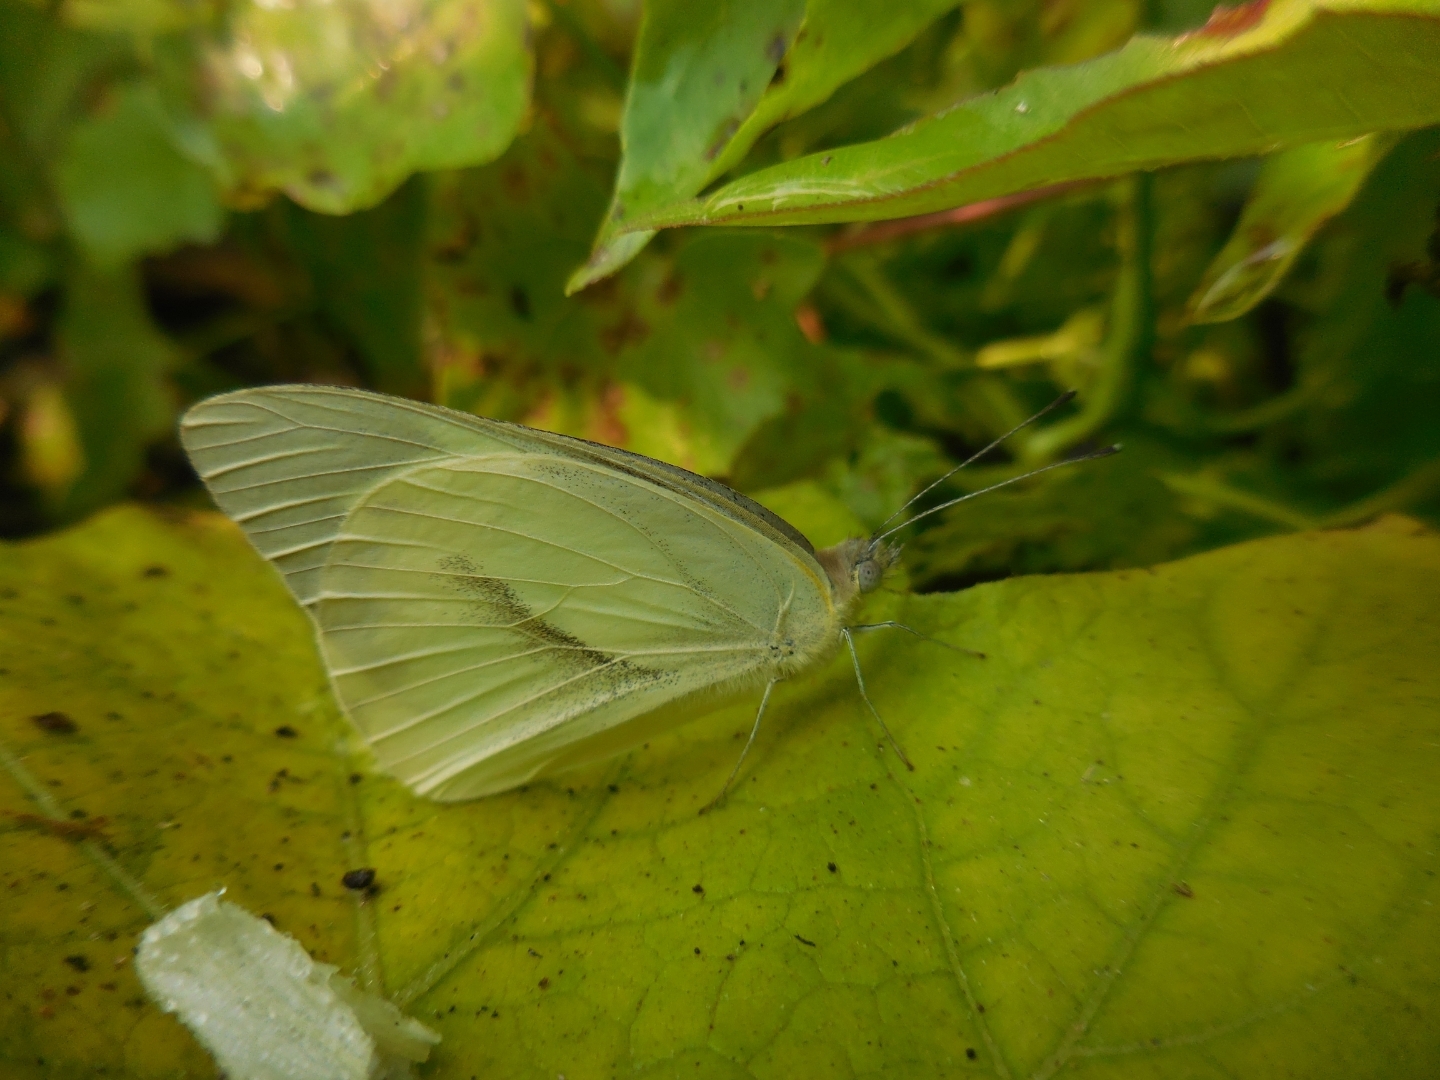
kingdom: Animalia
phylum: Arthropoda
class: Insecta
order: Lepidoptera
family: Pieridae
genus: Appias
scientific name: Appias libythea
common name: Striped albatross
